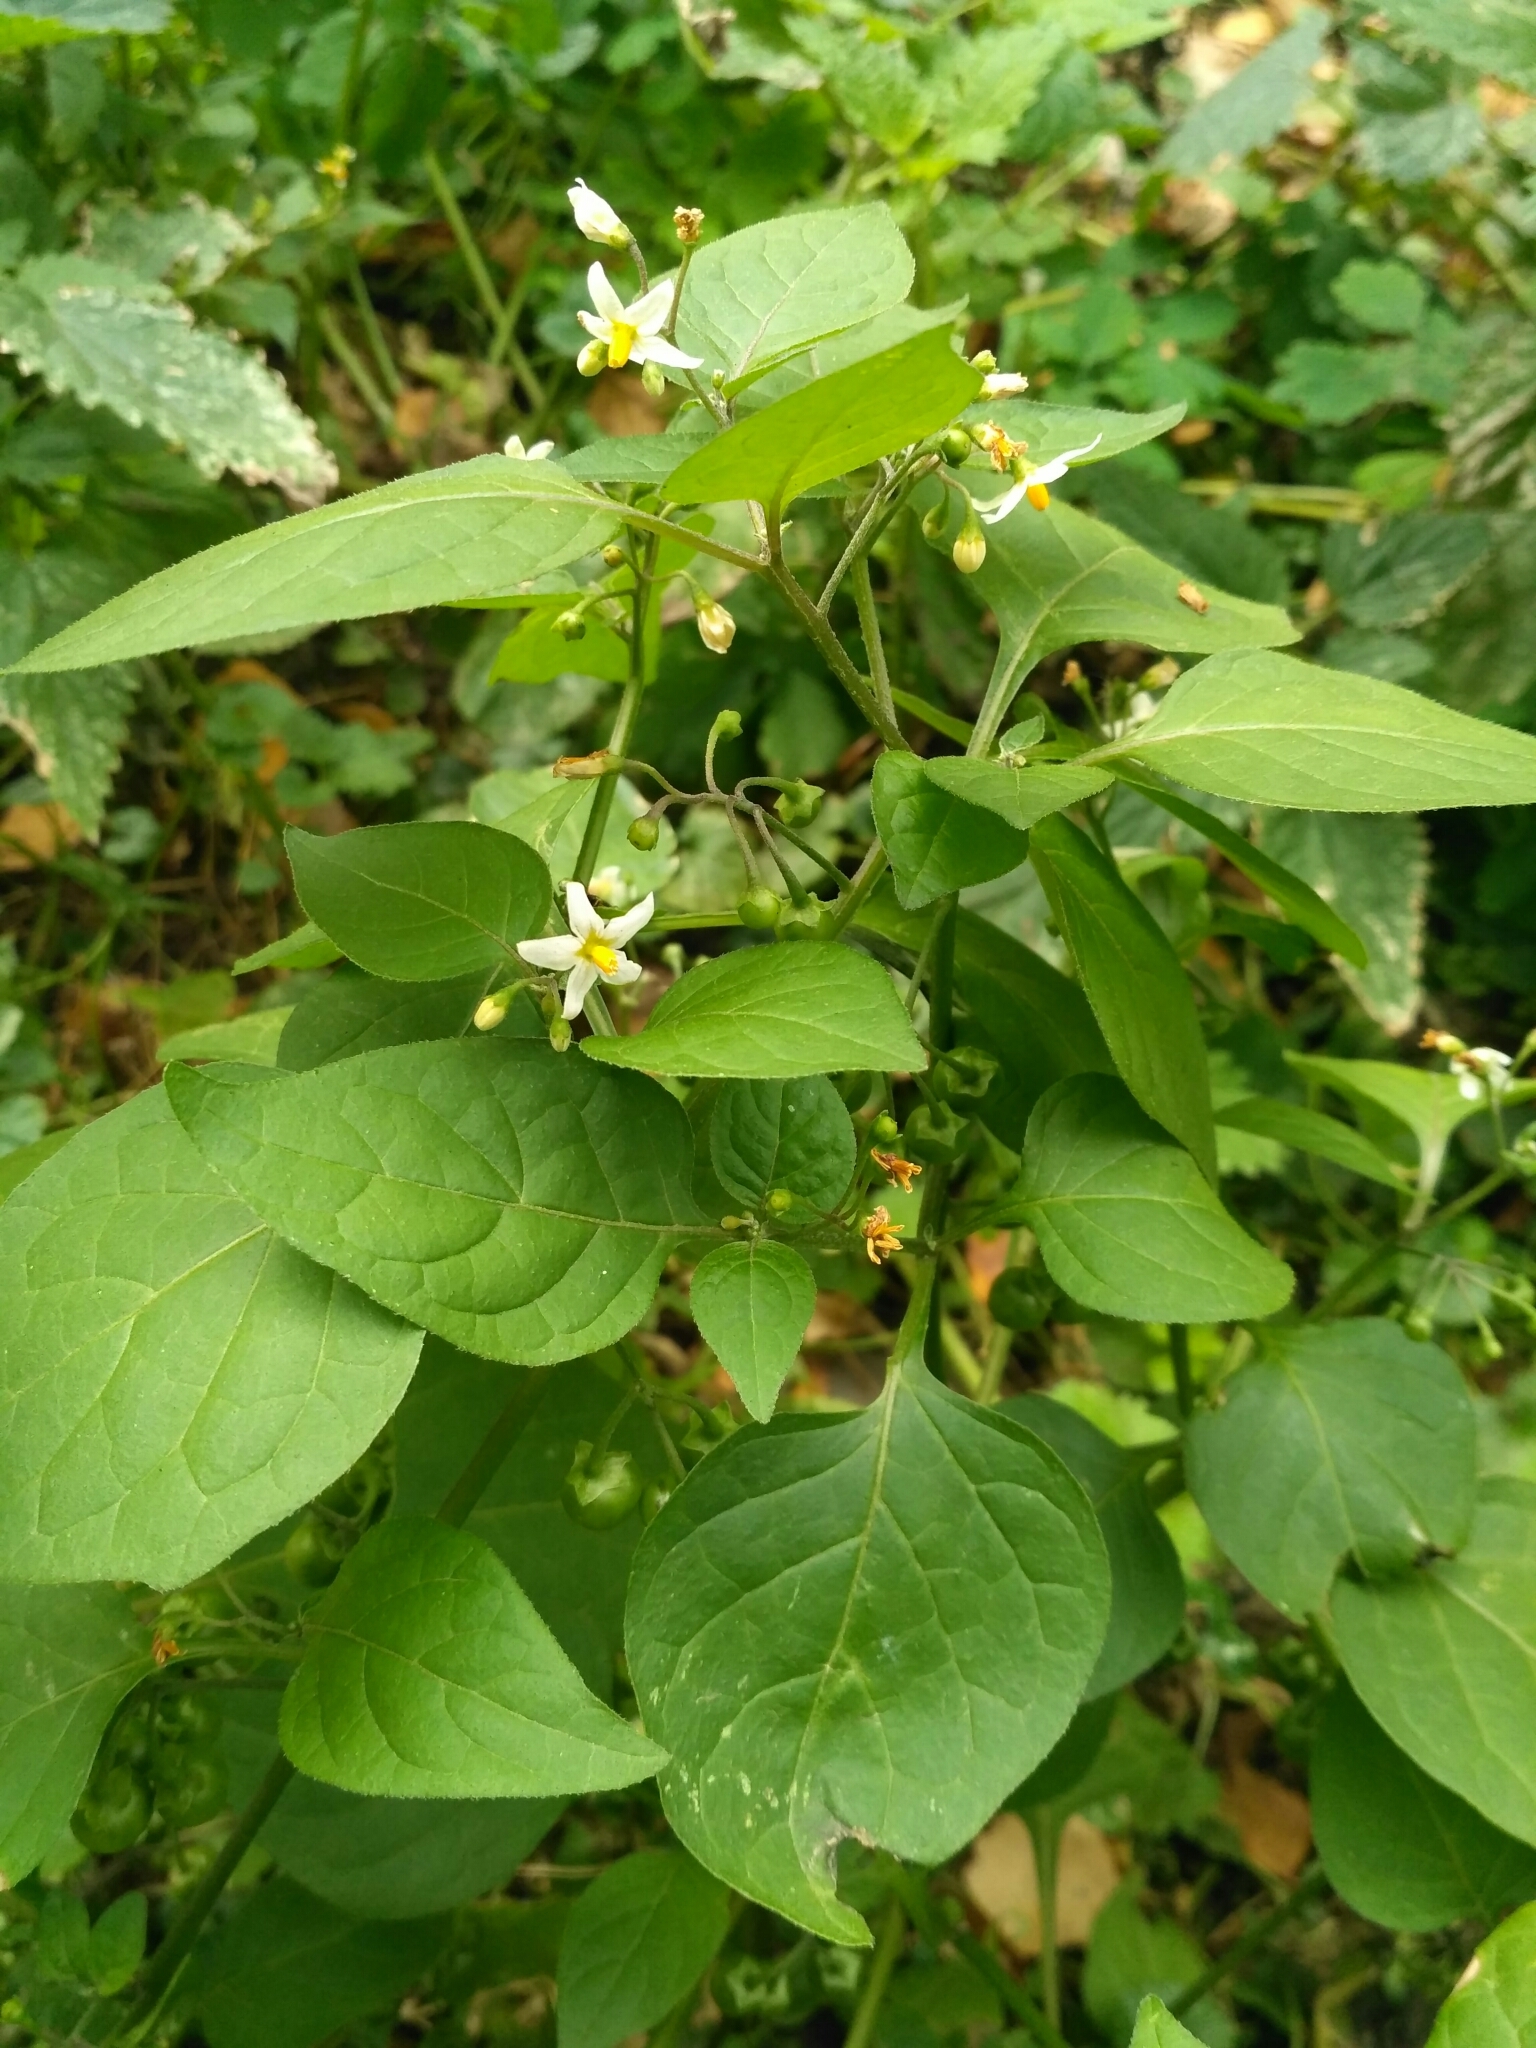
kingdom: Plantae
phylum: Tracheophyta
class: Magnoliopsida
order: Solanales
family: Solanaceae
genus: Solanum
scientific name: Solanum nigrum
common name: Black nightshade
